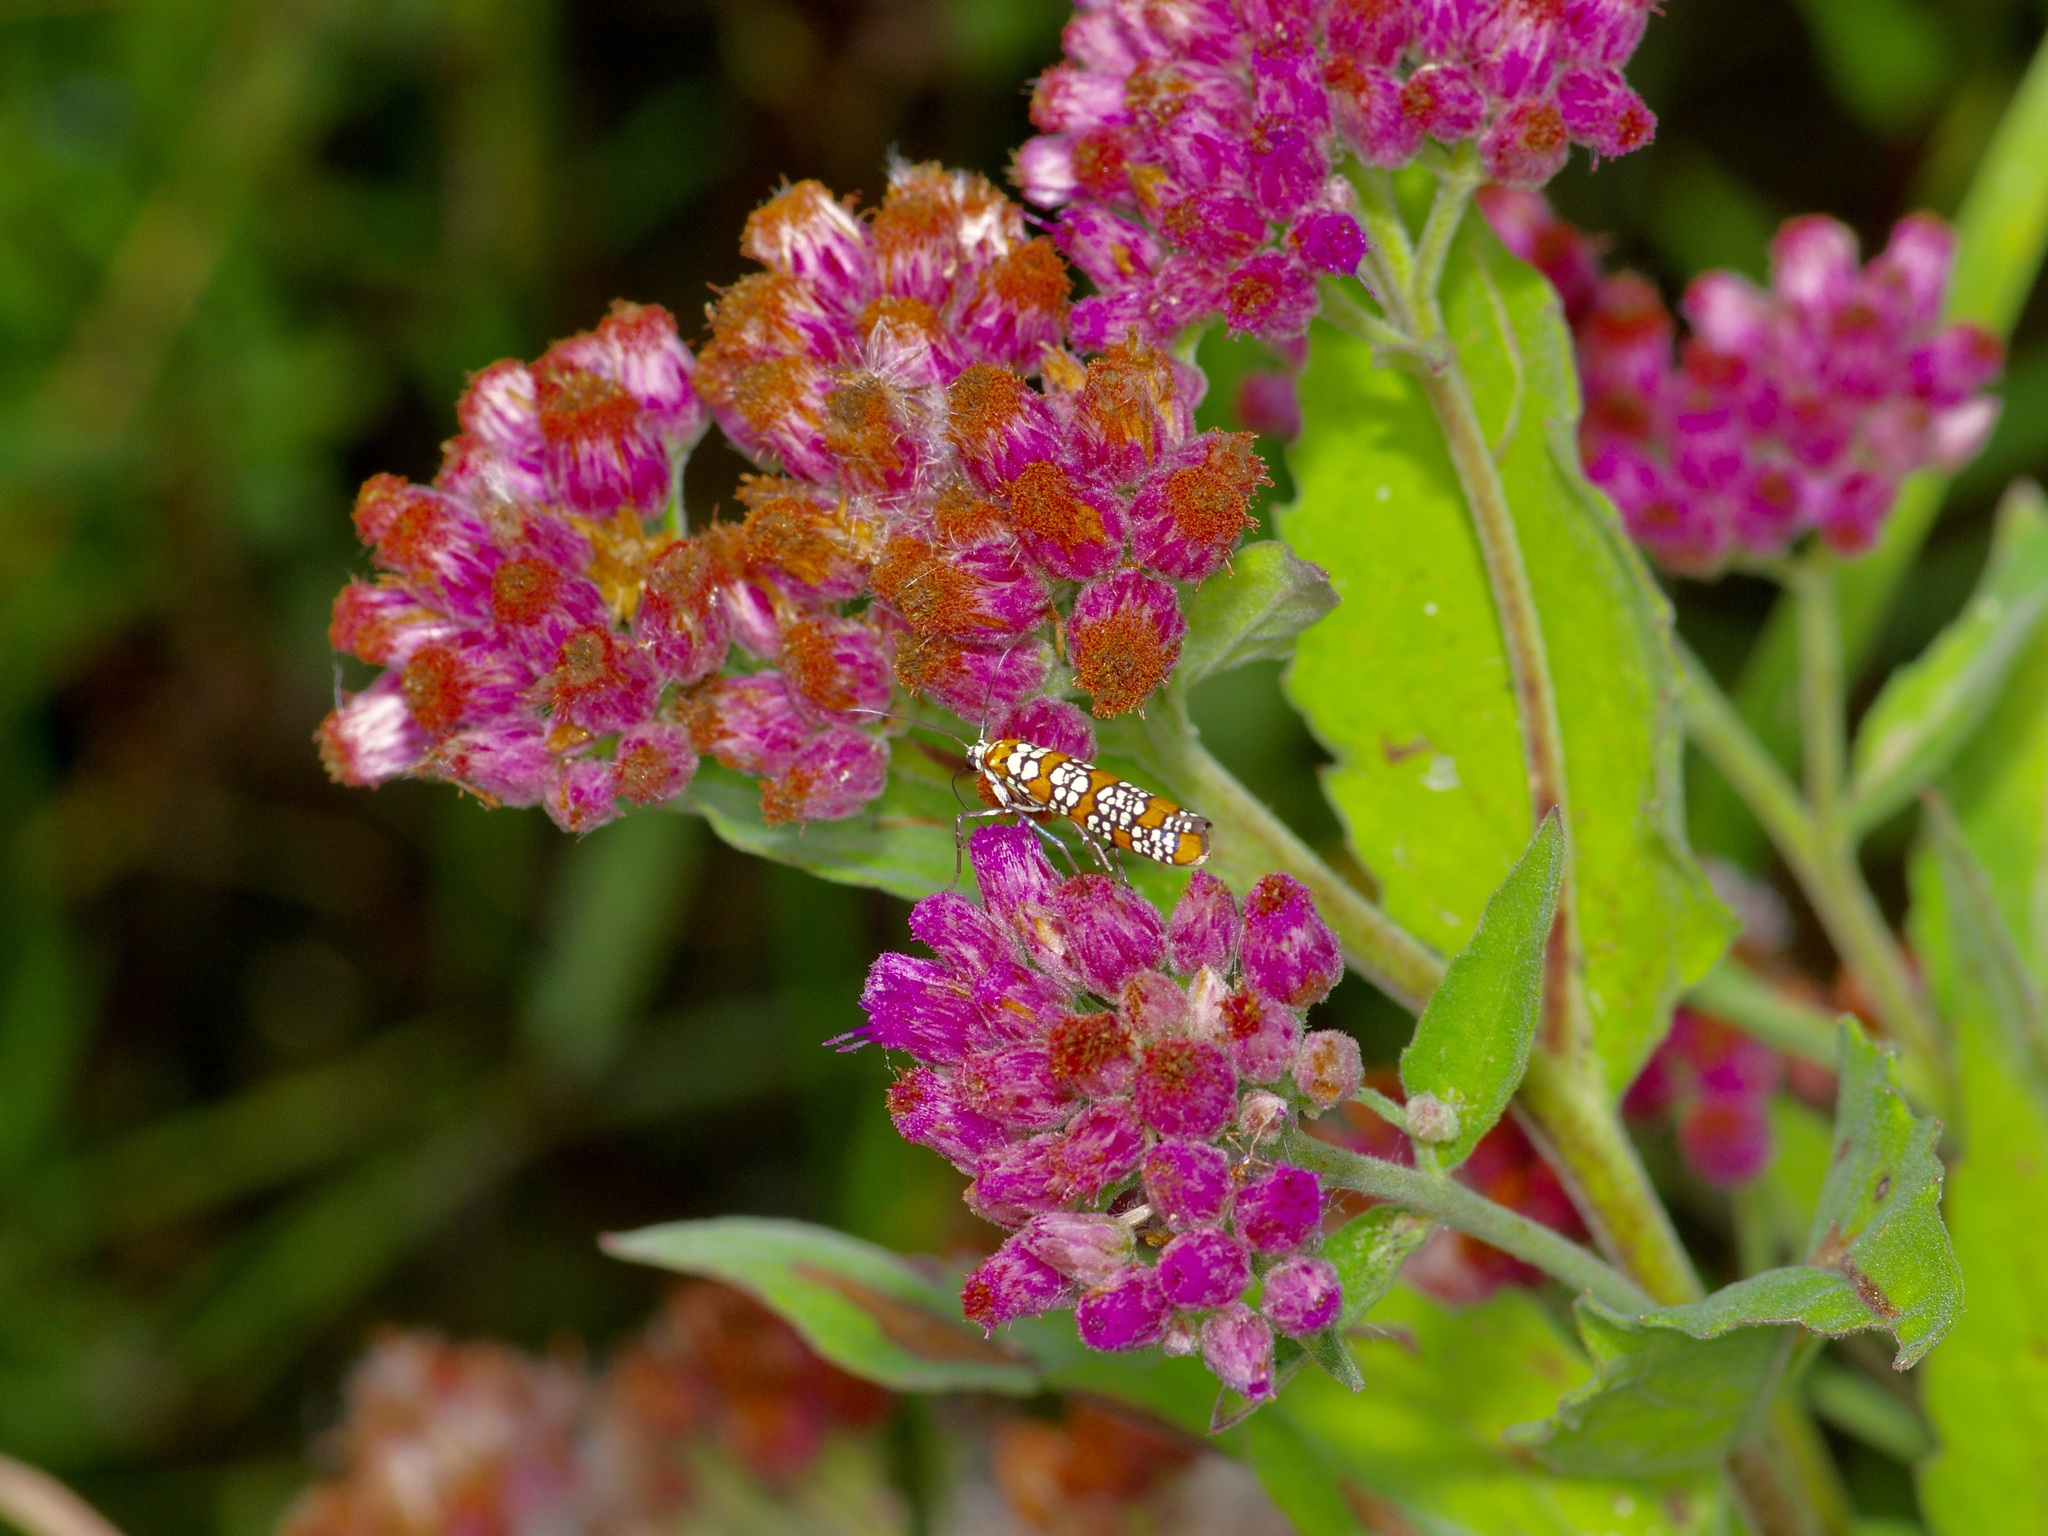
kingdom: Animalia
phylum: Arthropoda
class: Insecta
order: Lepidoptera
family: Attevidae
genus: Atteva
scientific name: Atteva punctella
